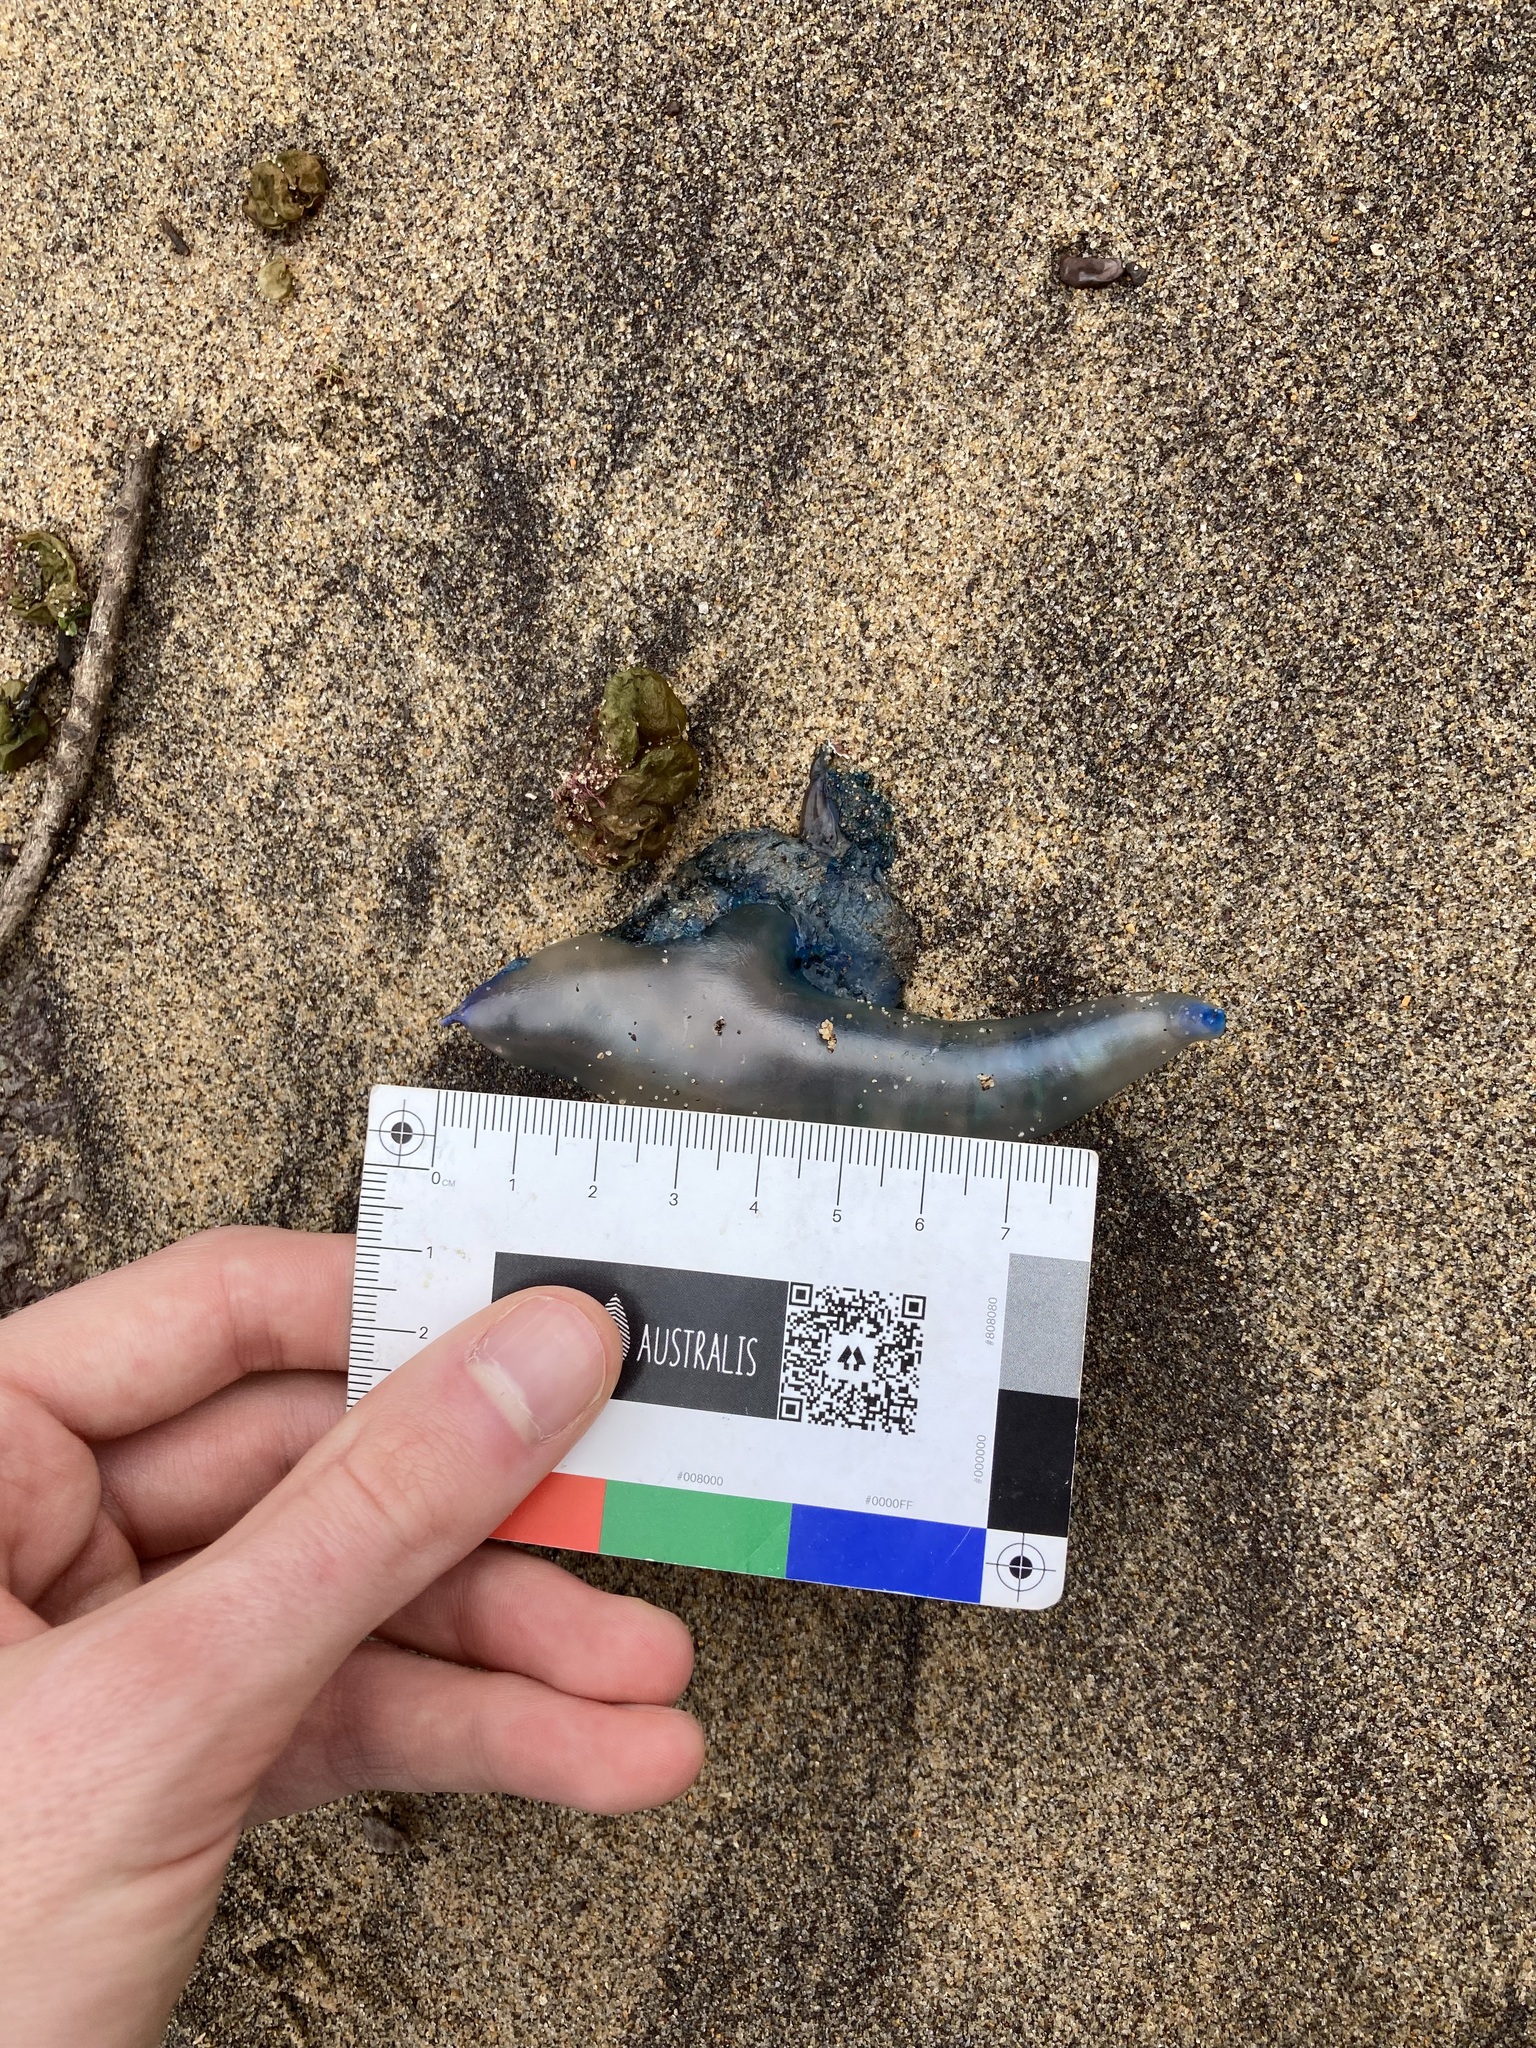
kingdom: Animalia
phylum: Cnidaria
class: Hydrozoa
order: Siphonophorae
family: Physaliidae
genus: Physalia
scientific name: Physalia physalis
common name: Portuguese man-of-war
